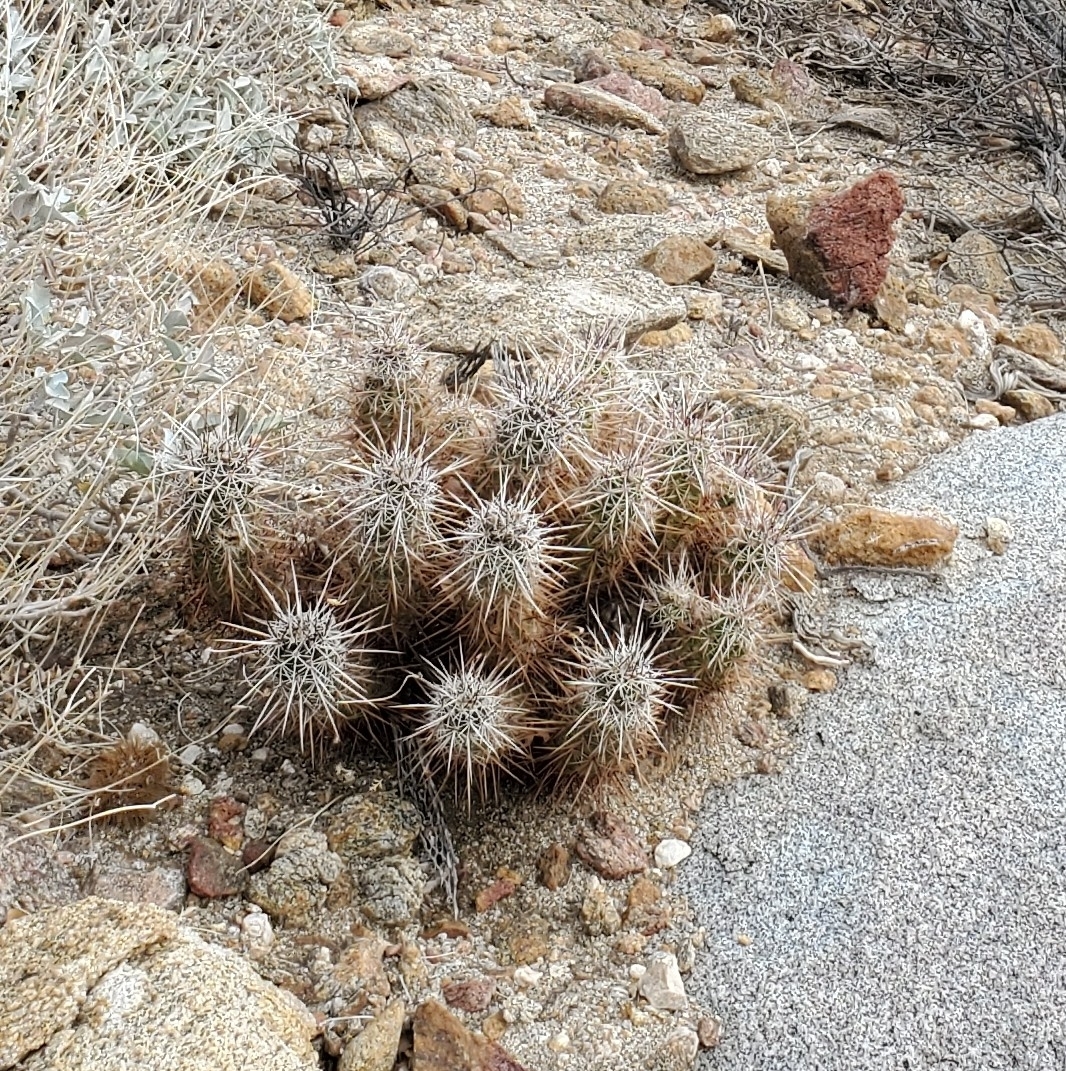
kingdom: Plantae
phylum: Tracheophyta
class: Magnoliopsida
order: Caryophyllales
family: Cactaceae
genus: Echinocereus
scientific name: Echinocereus engelmannii
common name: Engelmann's hedgehog cactus
